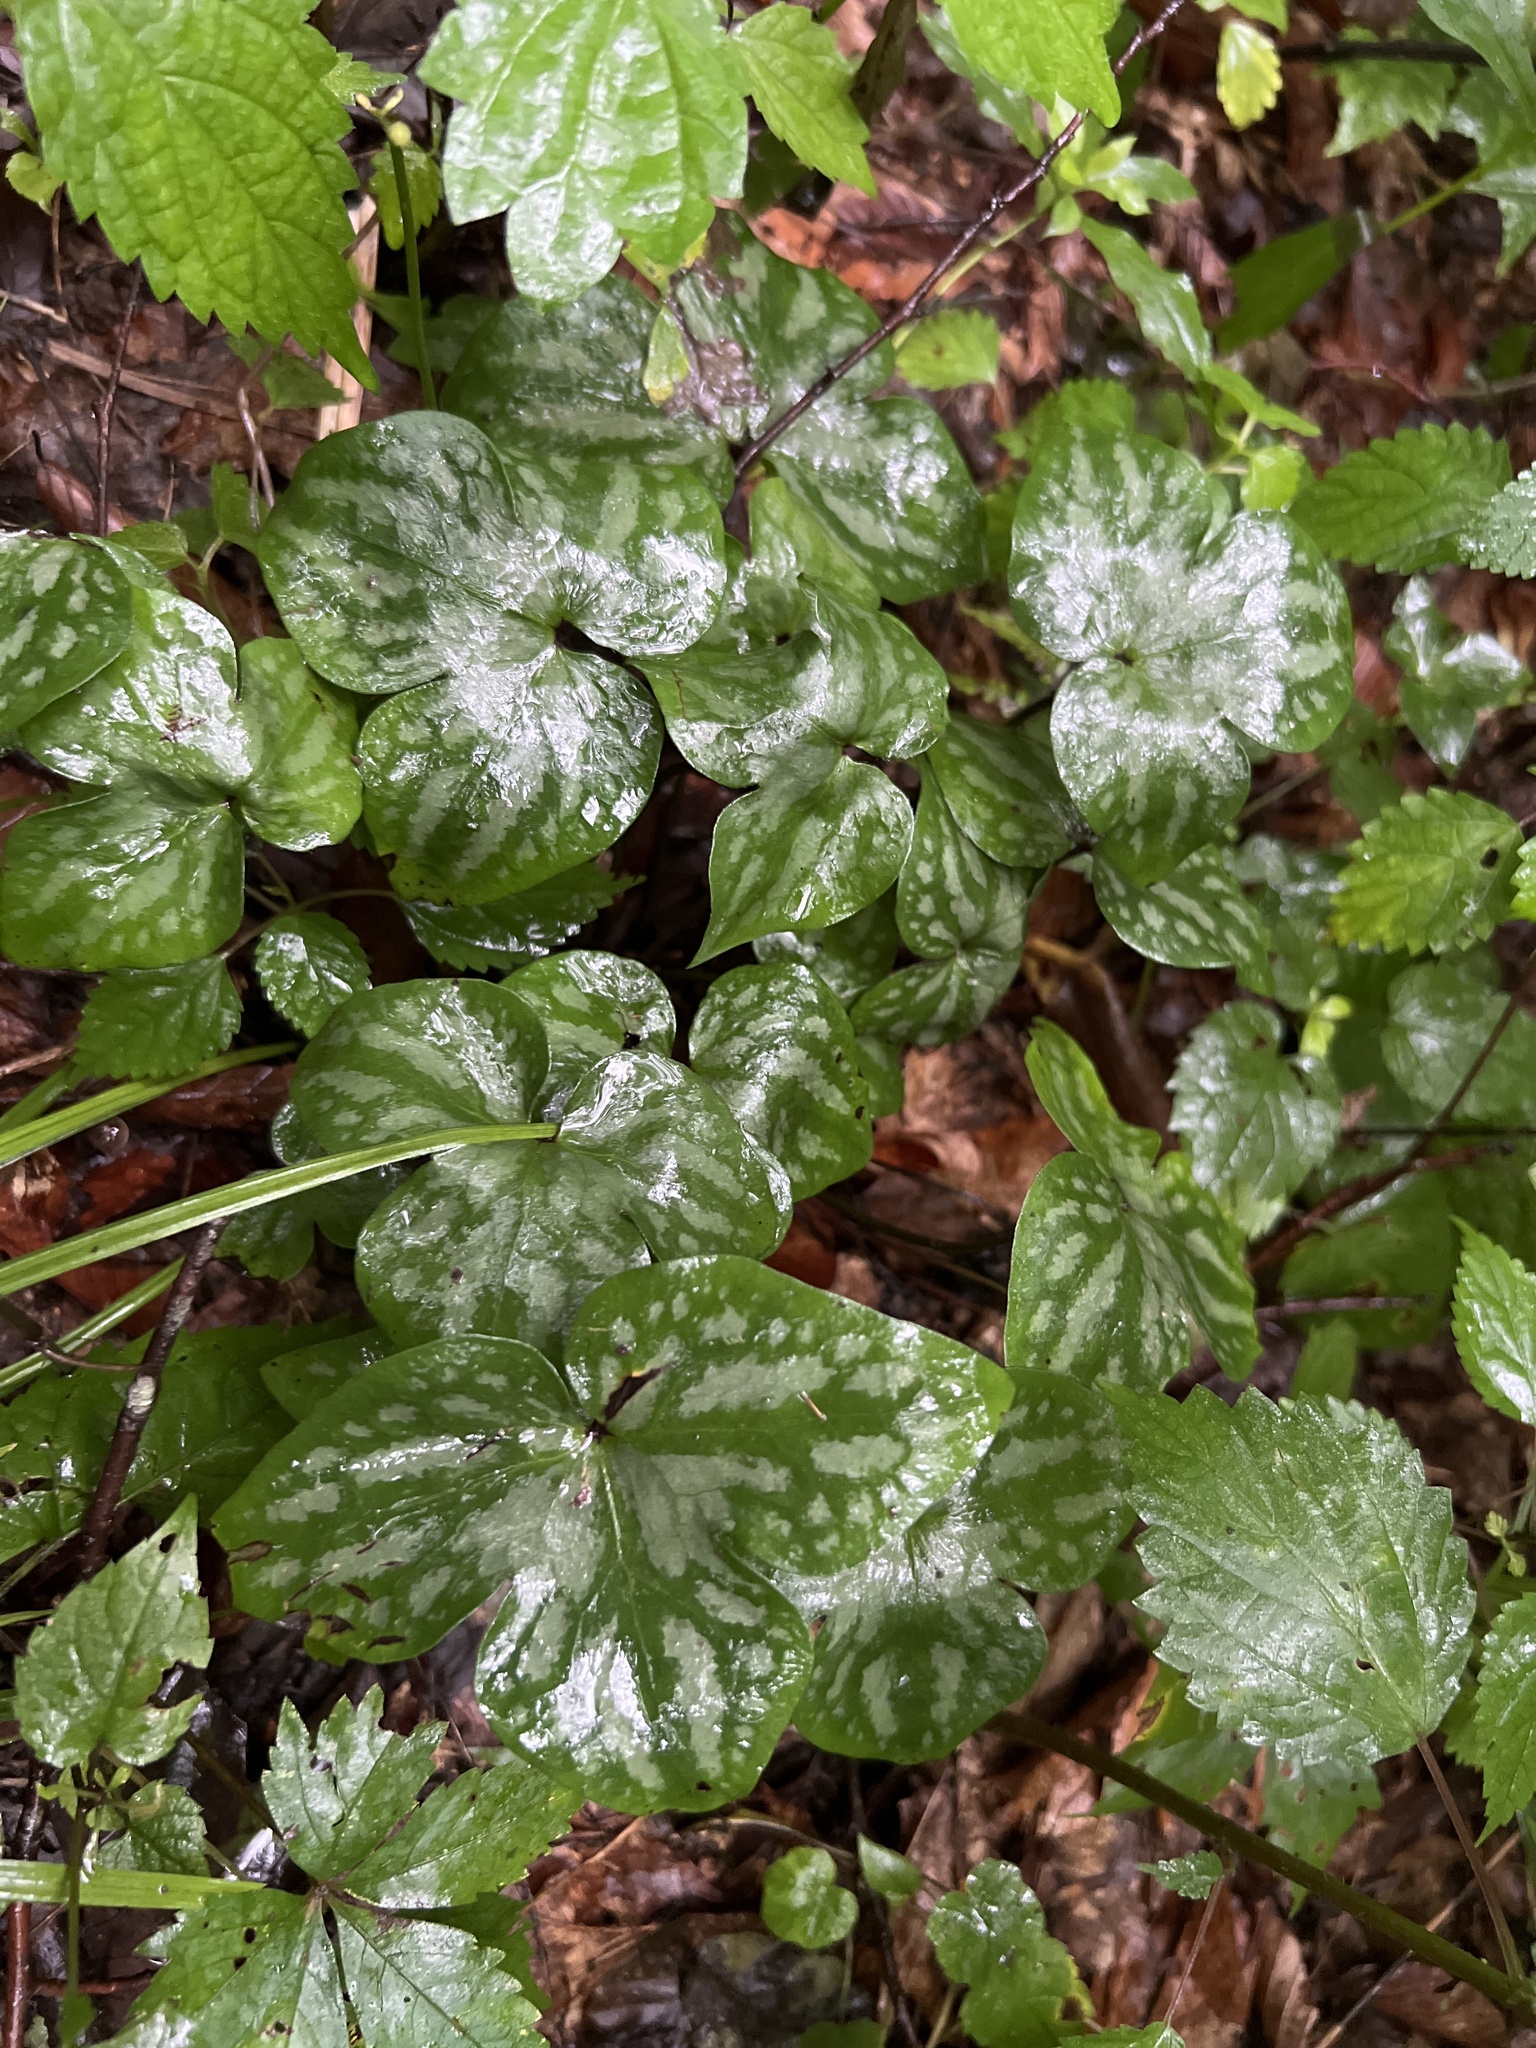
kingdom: Plantae
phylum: Tracheophyta
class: Magnoliopsida
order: Ranunculales
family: Ranunculaceae
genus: Hepatica
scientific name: Hepatica acutiloba
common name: Sharp-lobed hepatica
